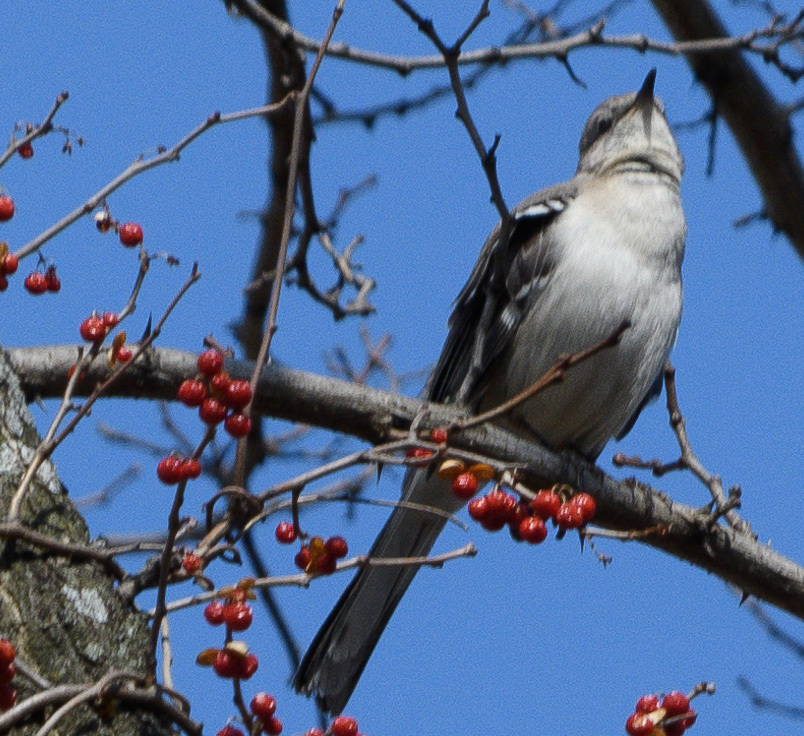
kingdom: Animalia
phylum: Chordata
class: Aves
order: Passeriformes
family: Mimidae
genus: Mimus
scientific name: Mimus polyglottos
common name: Northern mockingbird
